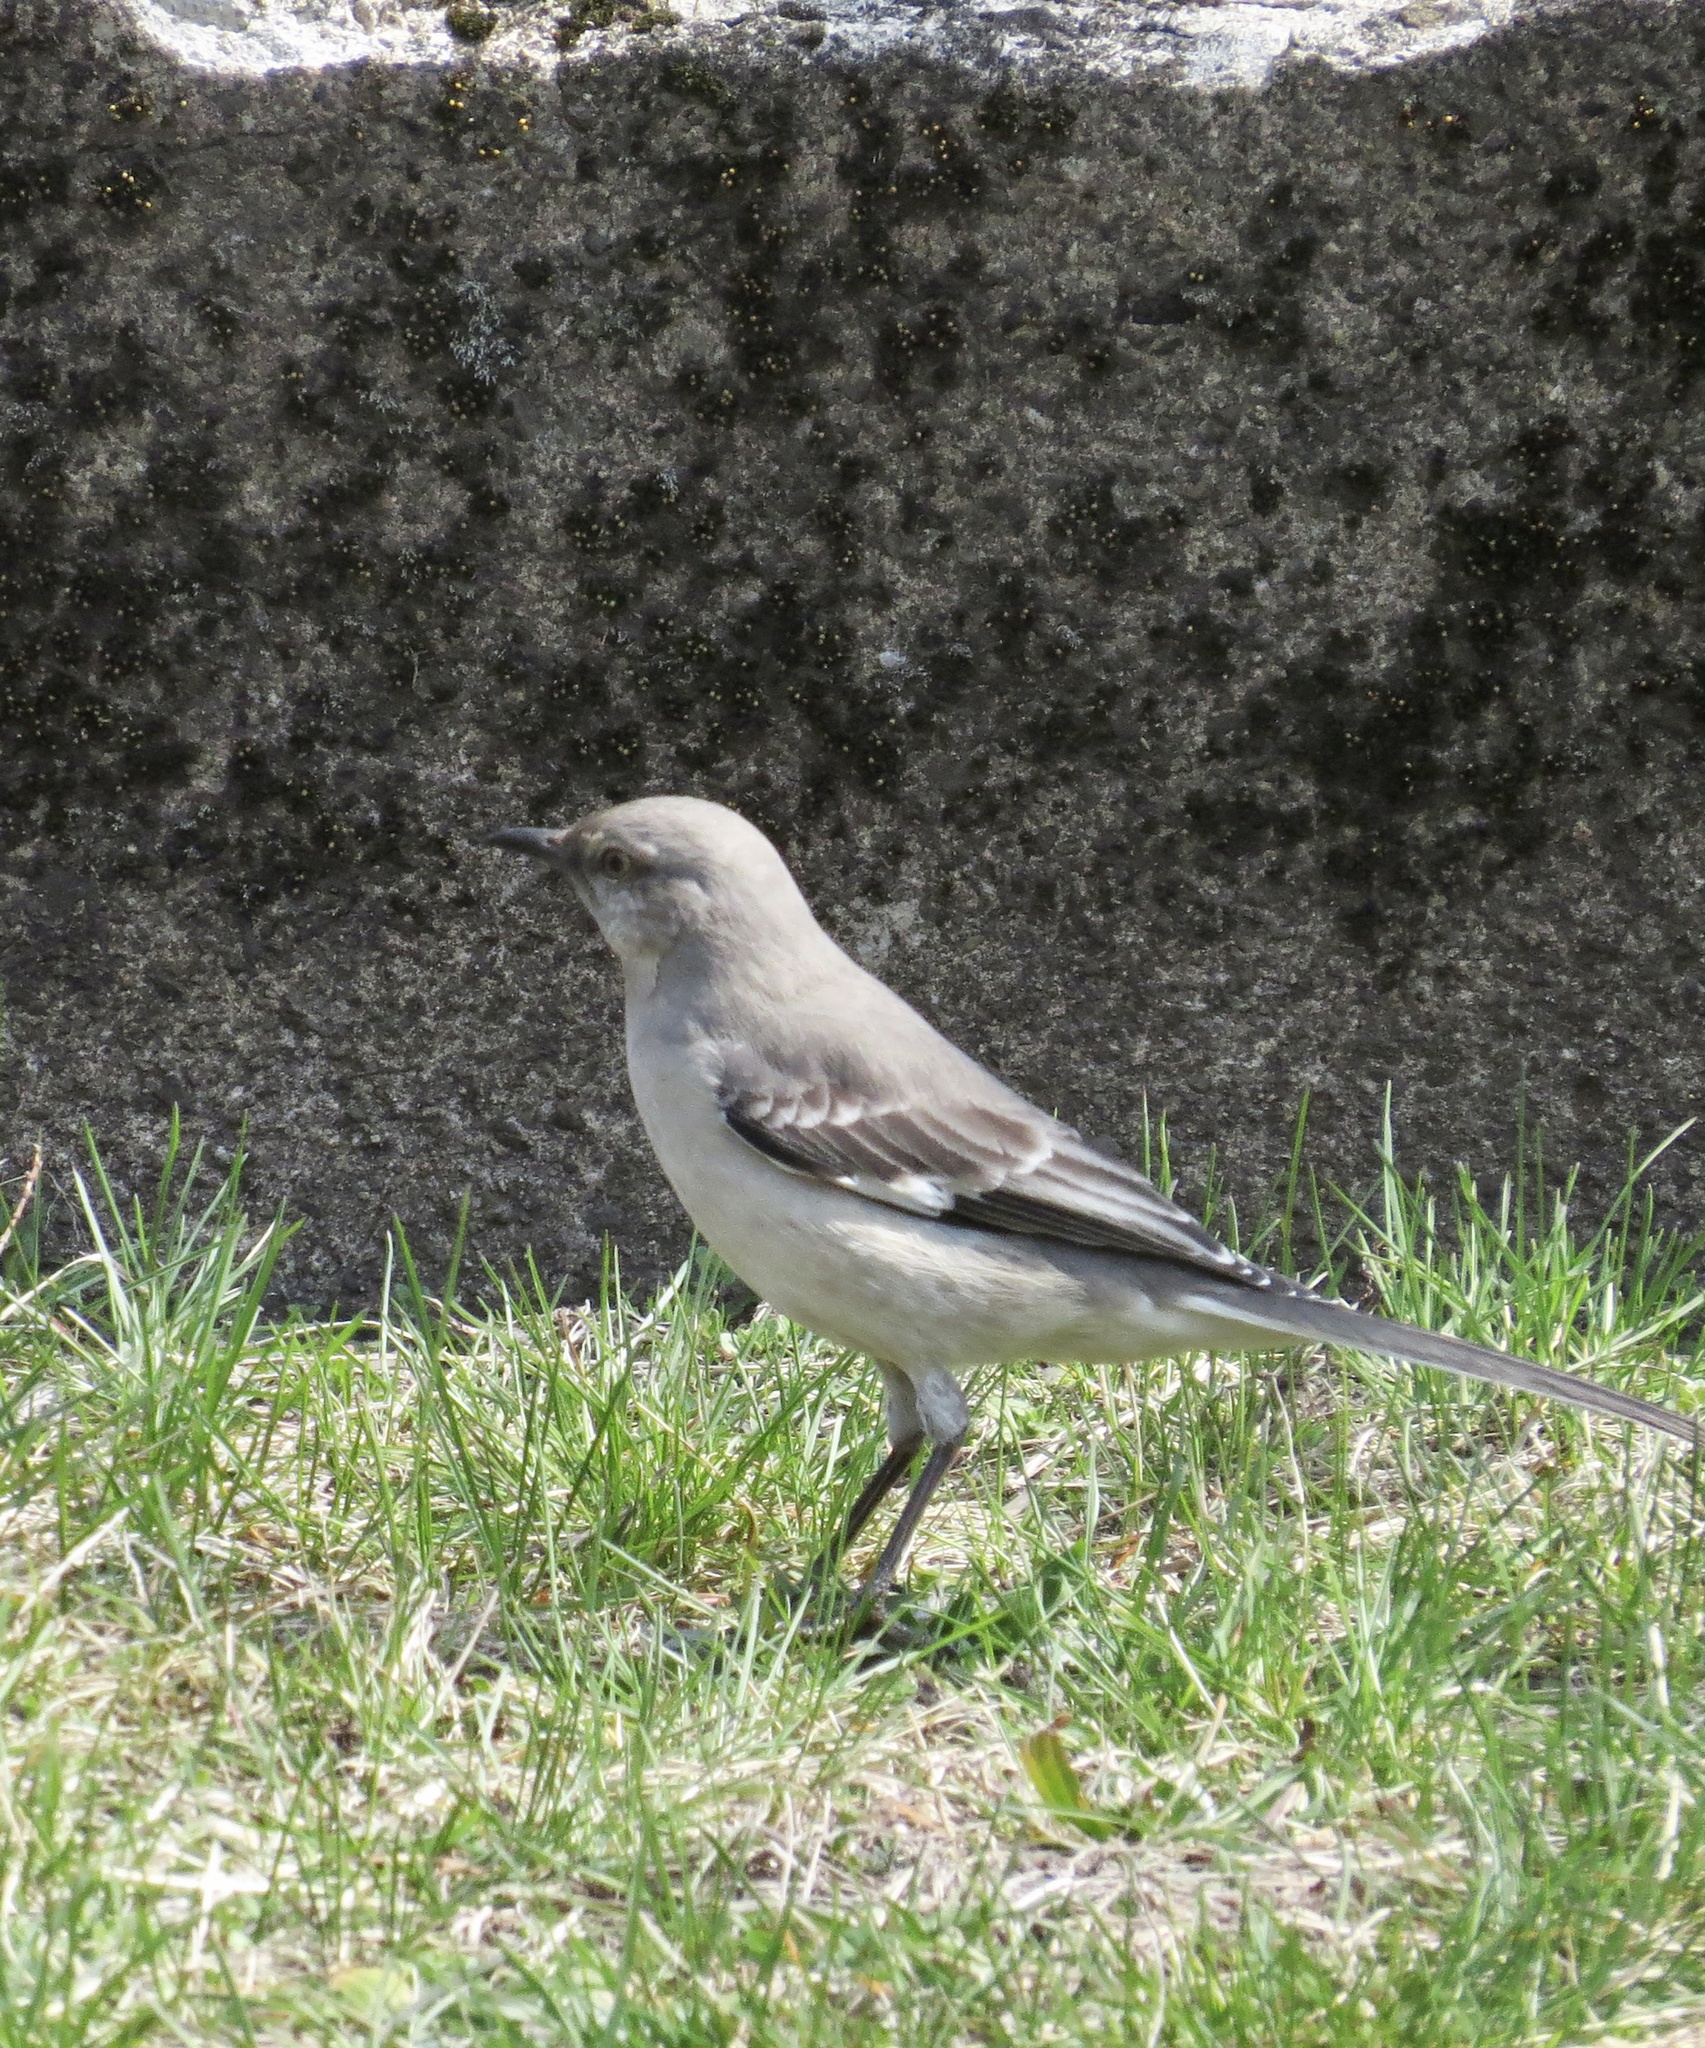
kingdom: Animalia
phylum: Chordata
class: Aves
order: Passeriformes
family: Mimidae
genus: Mimus
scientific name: Mimus polyglottos
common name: Northern mockingbird
